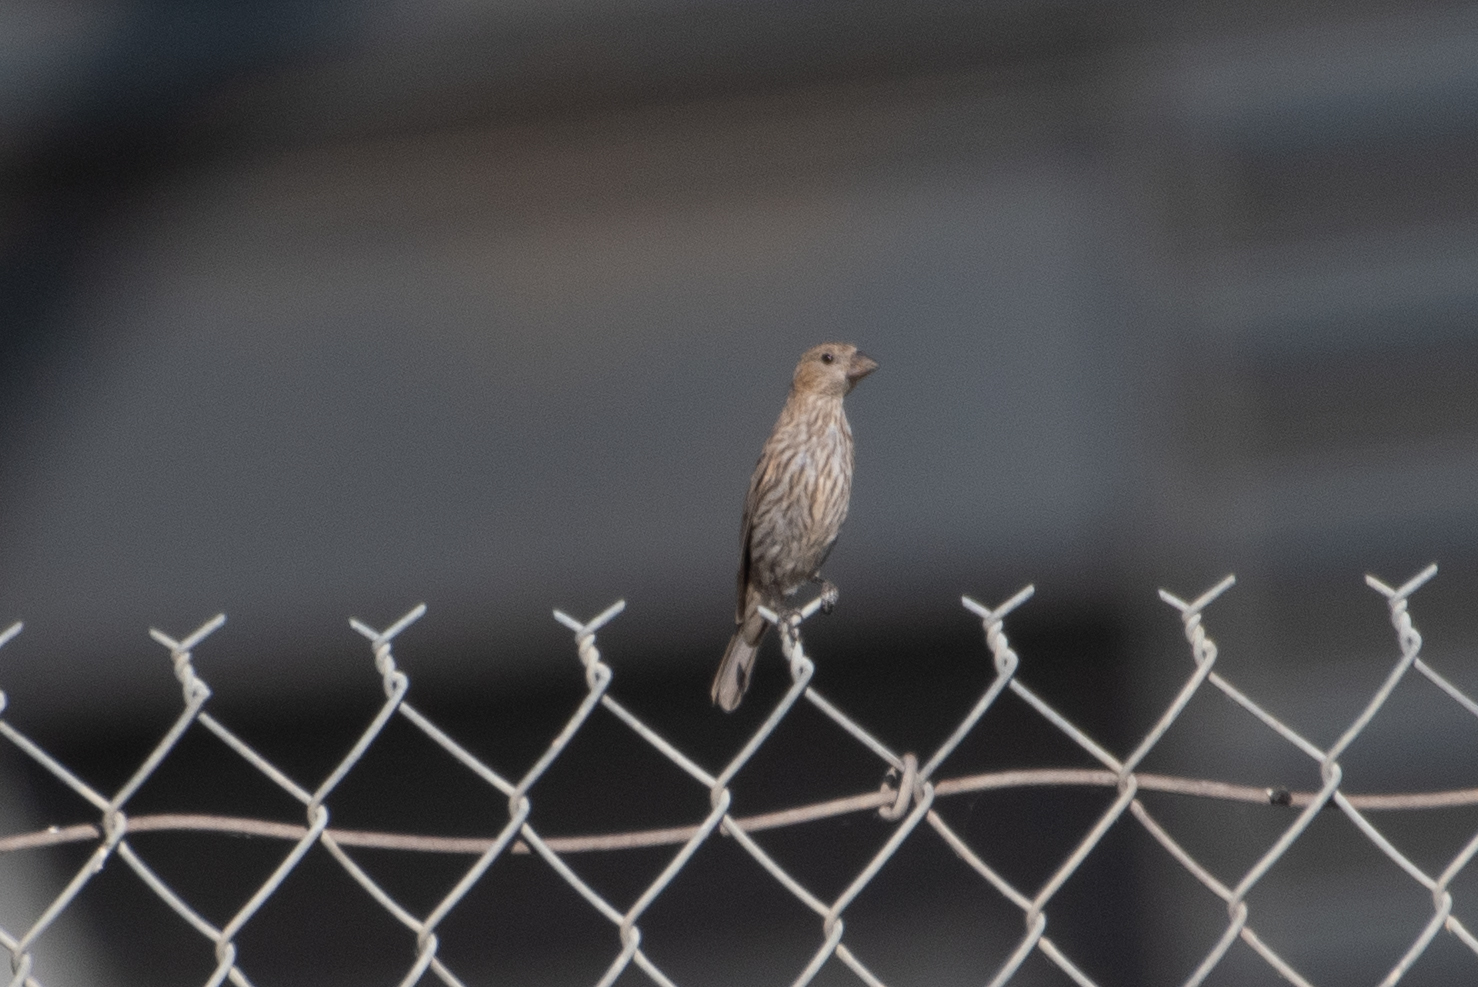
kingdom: Animalia
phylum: Chordata
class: Aves
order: Passeriformes
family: Fringillidae
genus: Haemorhous
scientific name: Haemorhous mexicanus
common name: House finch
